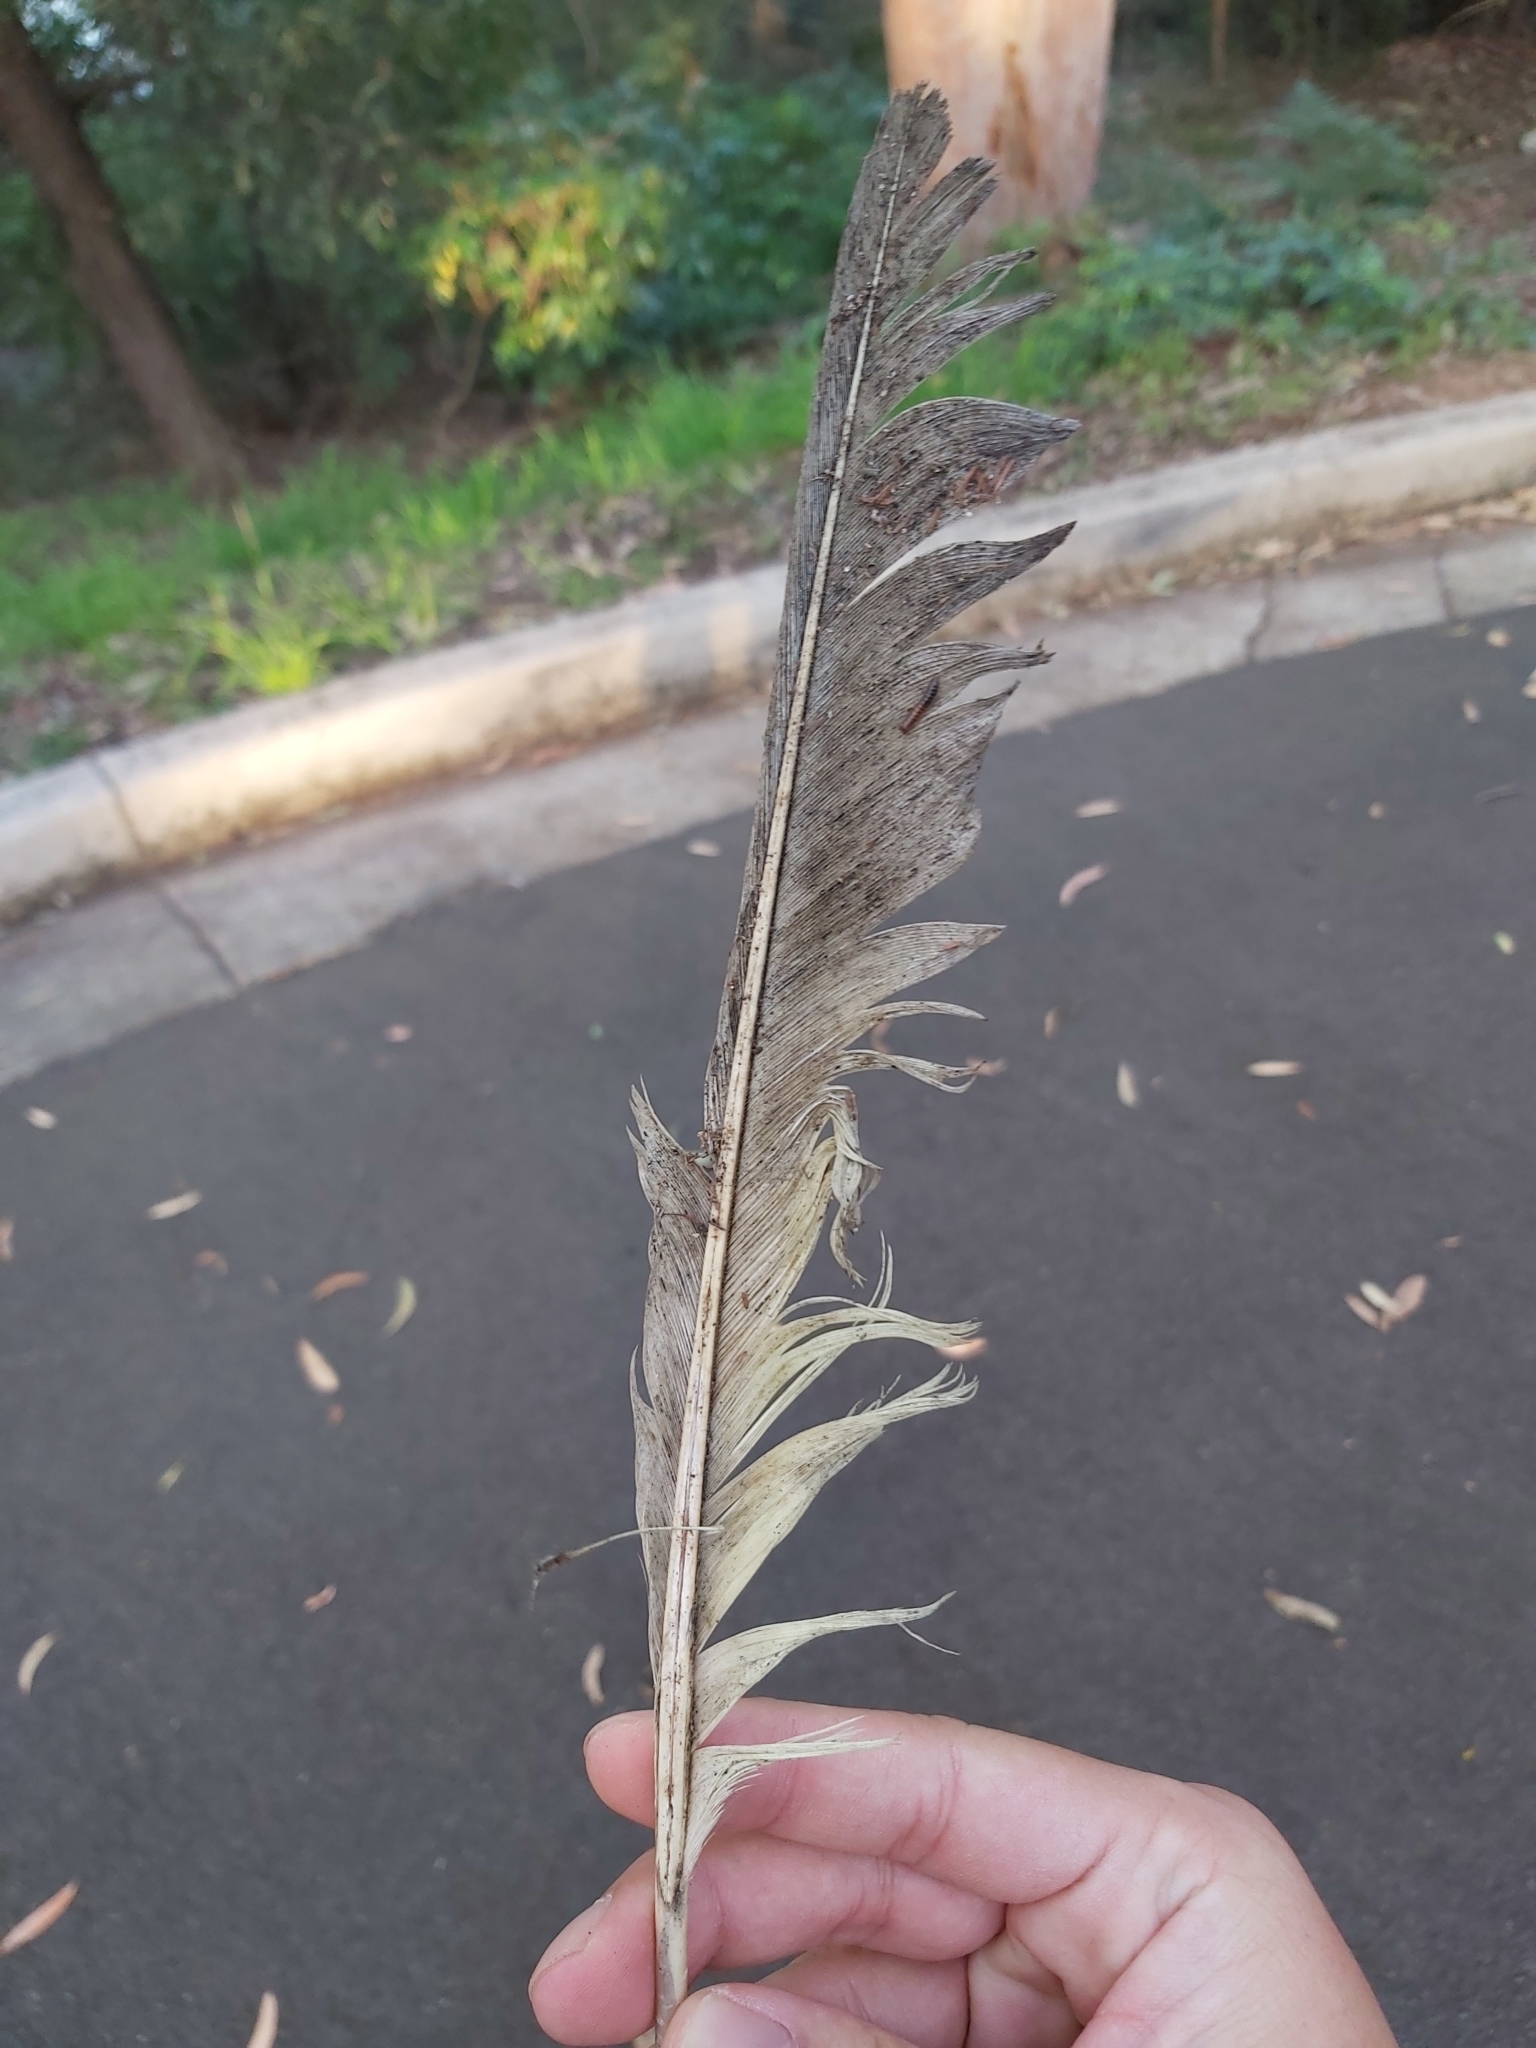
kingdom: Animalia
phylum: Chordata
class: Aves
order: Psittaciformes
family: Psittacidae
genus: Cacatua
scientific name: Cacatua galerita
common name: Sulphur-crested cockatoo
